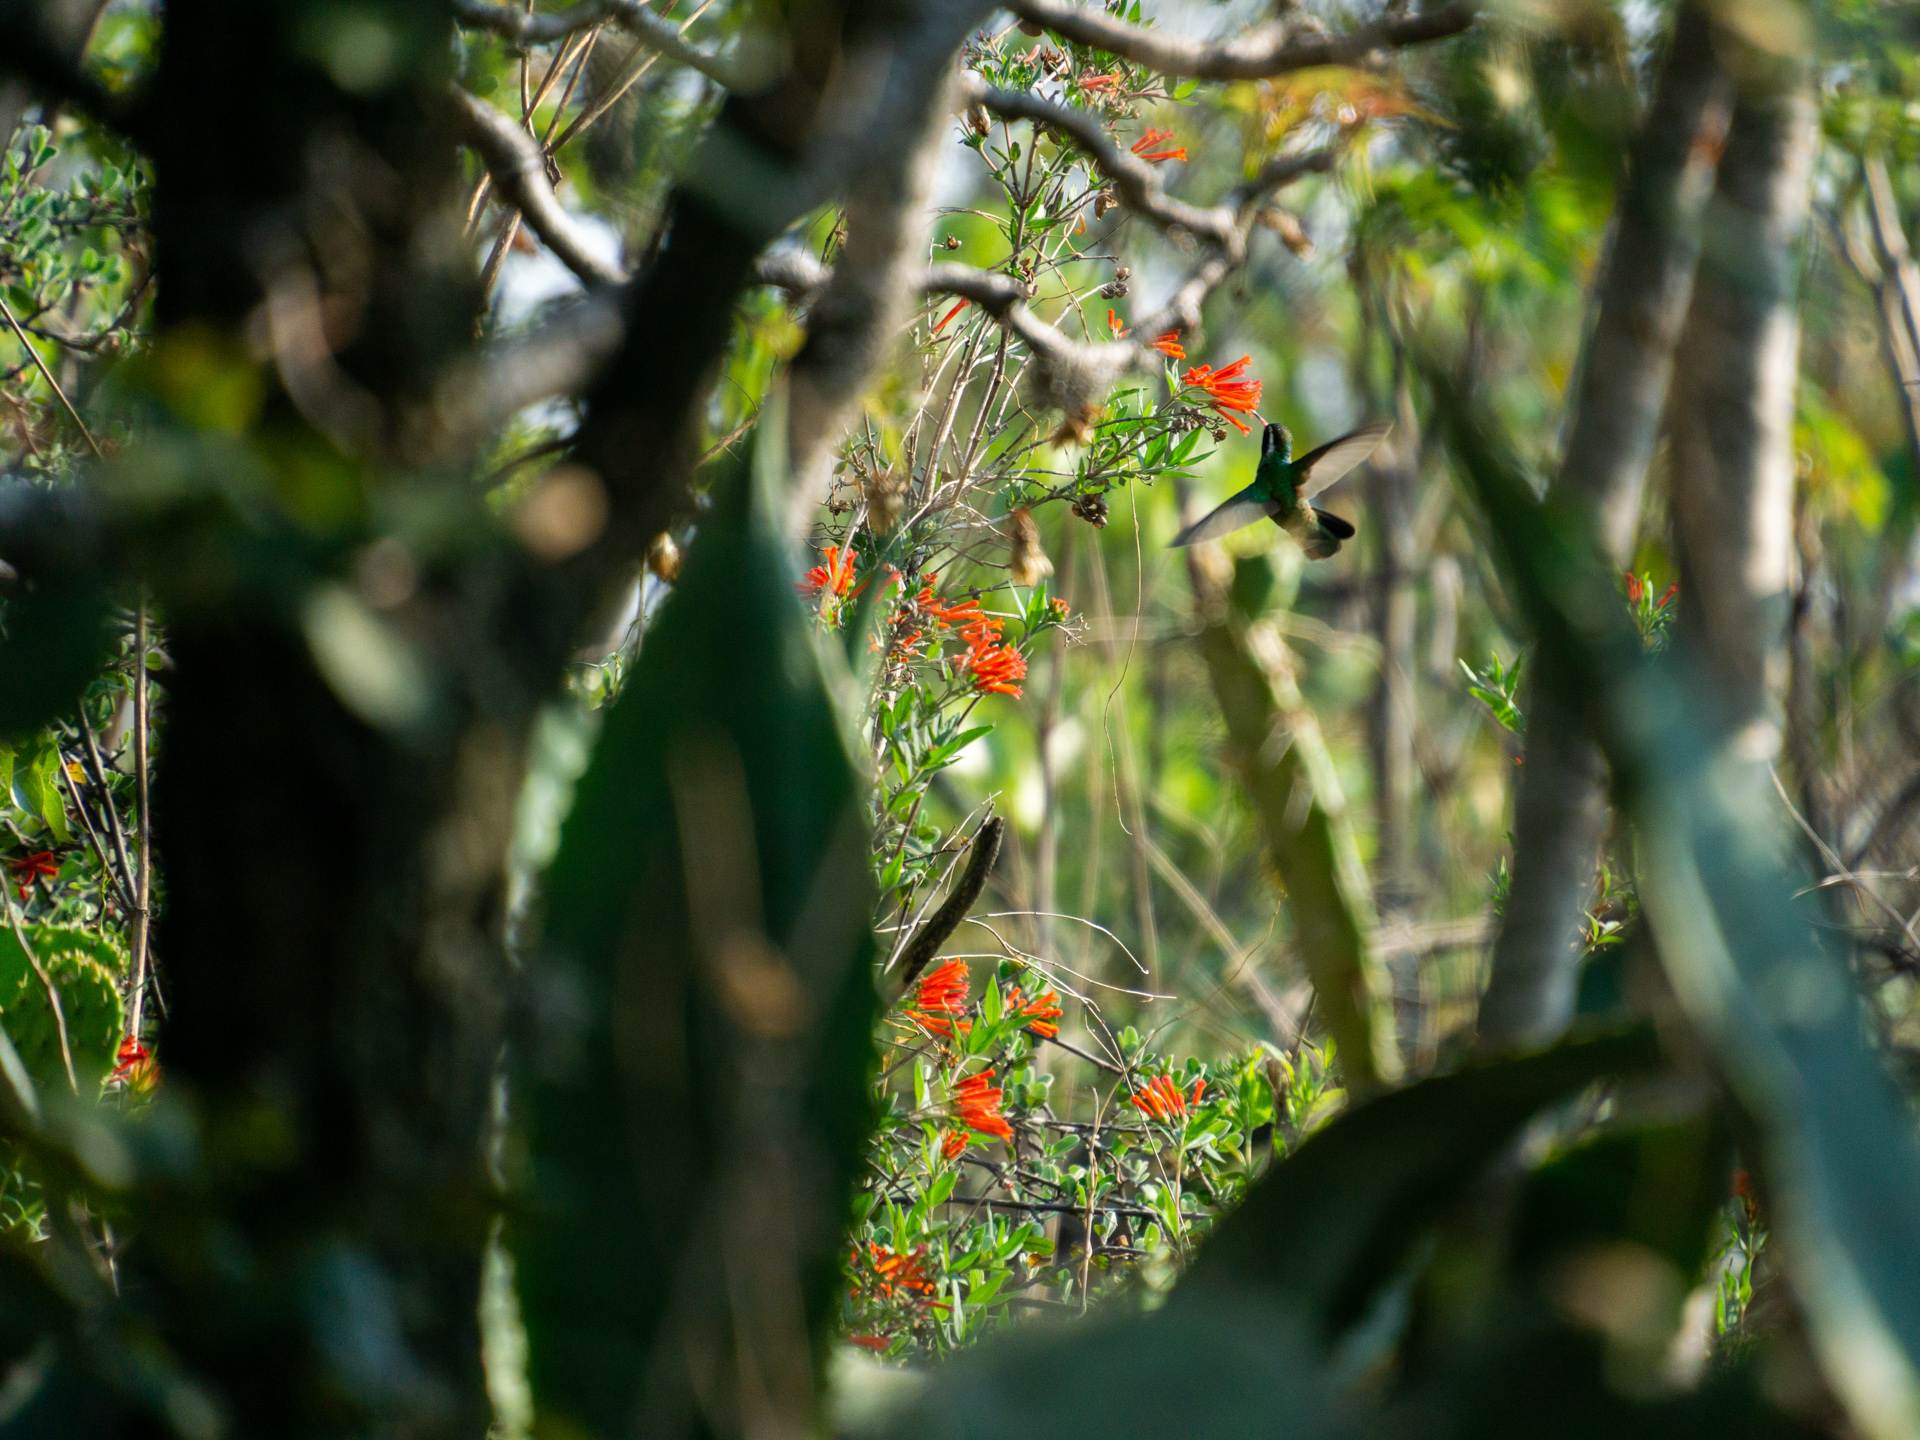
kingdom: Animalia
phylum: Chordata
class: Aves
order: Apodiformes
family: Trochilidae
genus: Basilinna
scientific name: Basilinna leucotis
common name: White-eared hummingbird
